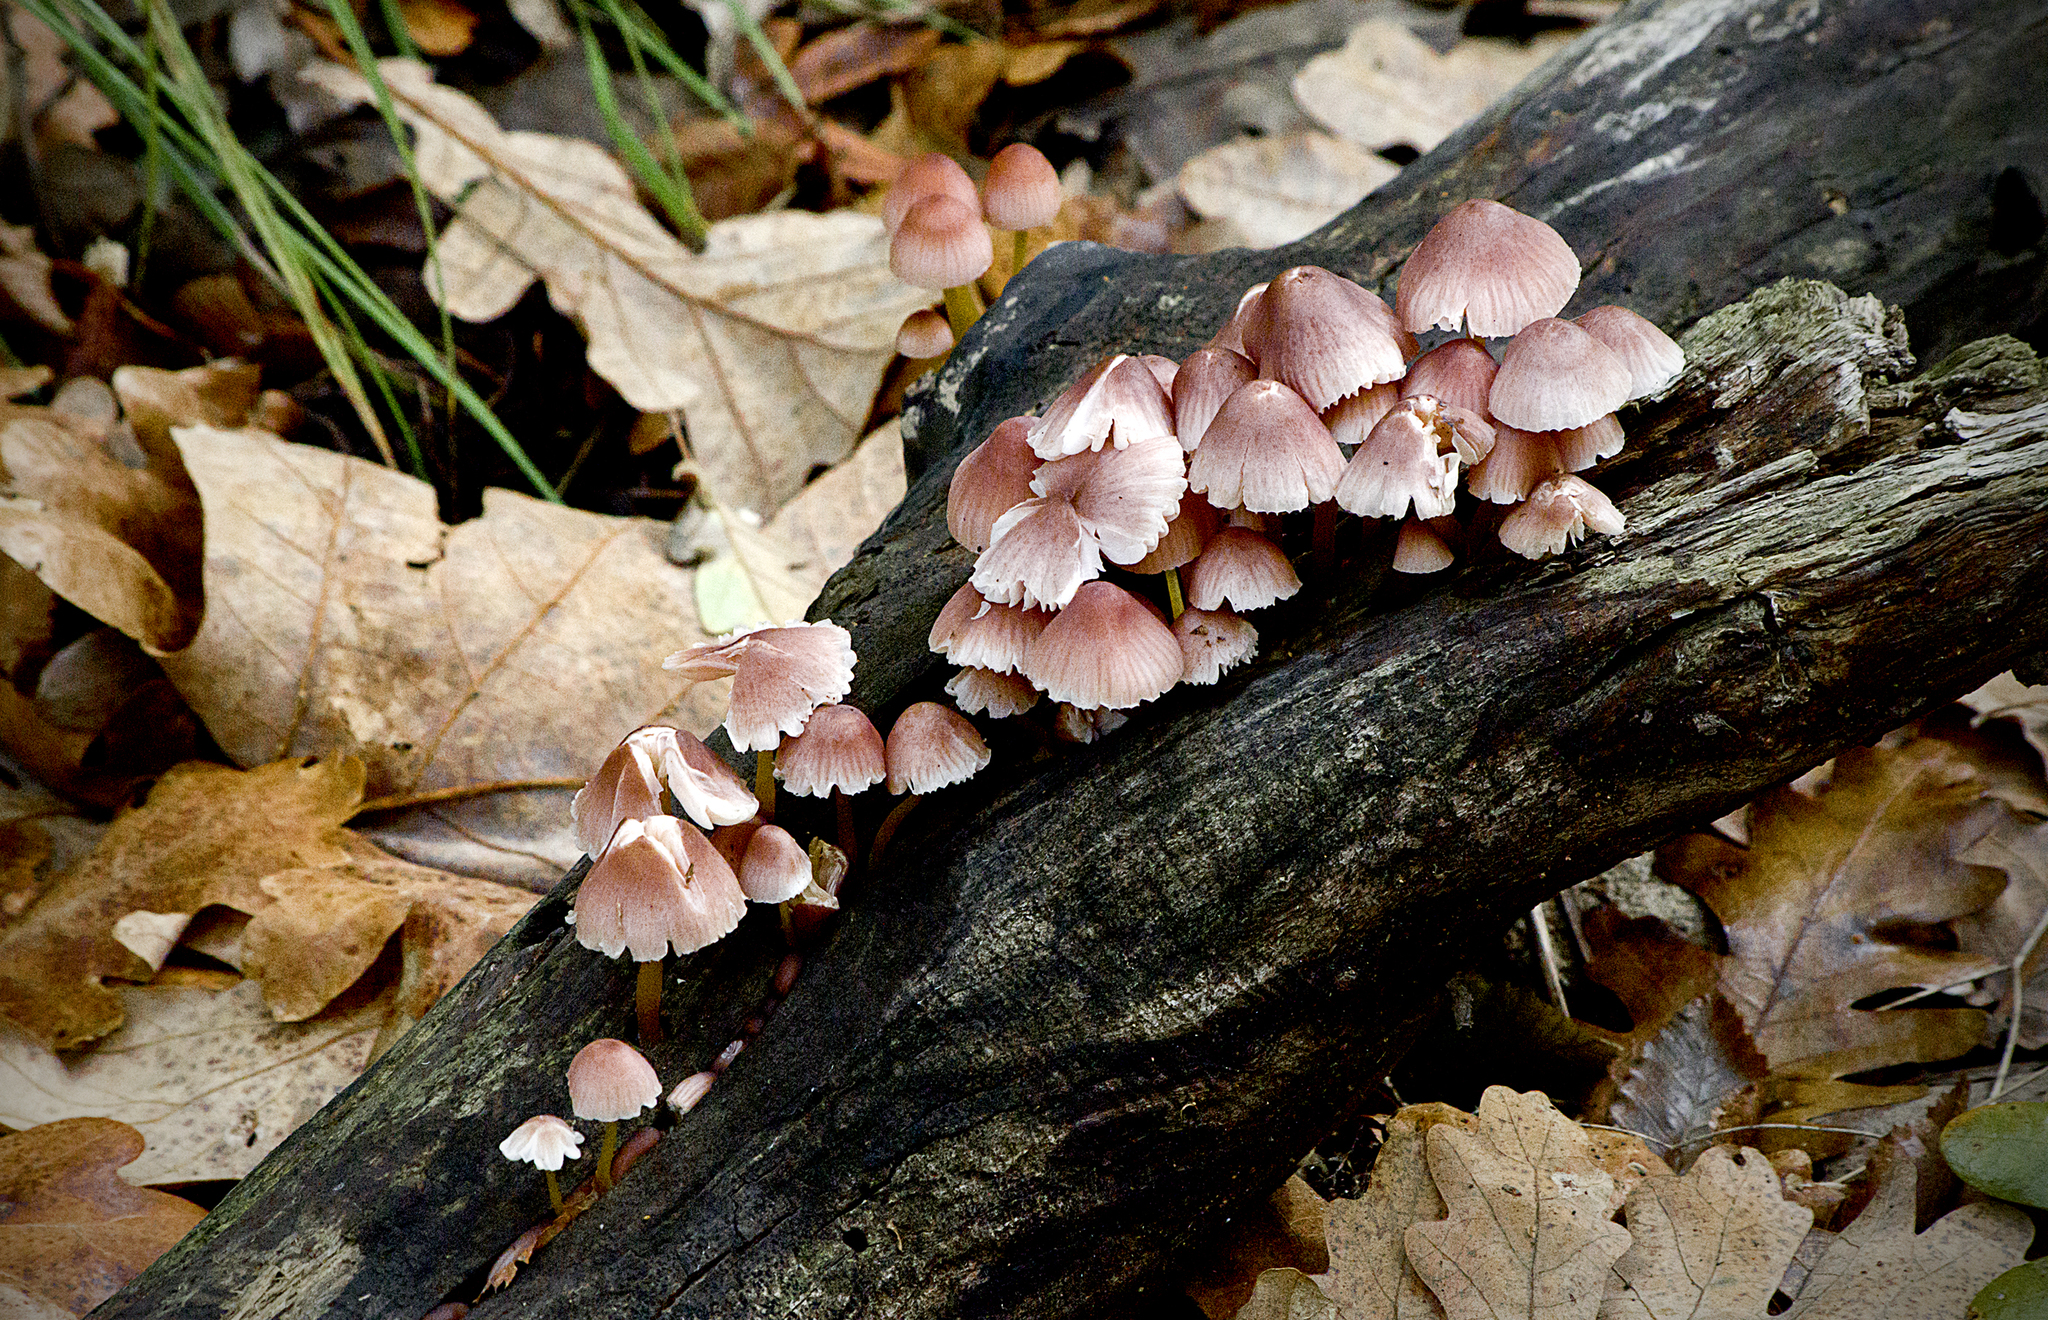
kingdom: Fungi
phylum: Basidiomycota
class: Agaricomycetes
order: Agaricales
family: Mycenaceae
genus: Mycena
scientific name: Mycena renati
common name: Beautiful bonnet
